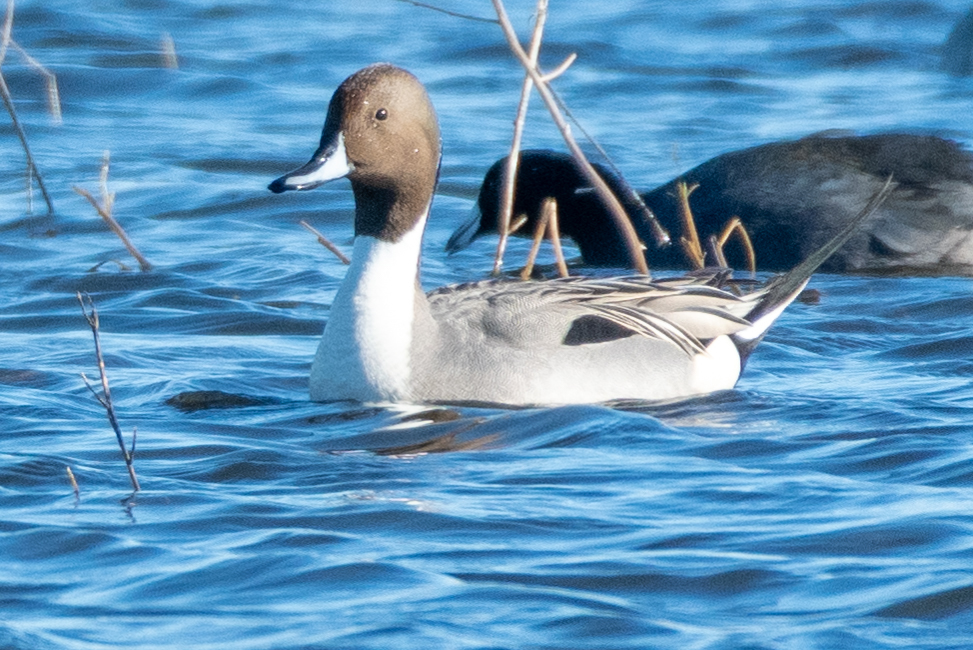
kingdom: Animalia
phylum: Chordata
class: Aves
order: Anseriformes
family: Anatidae
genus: Anas
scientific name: Anas acuta
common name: Northern pintail
